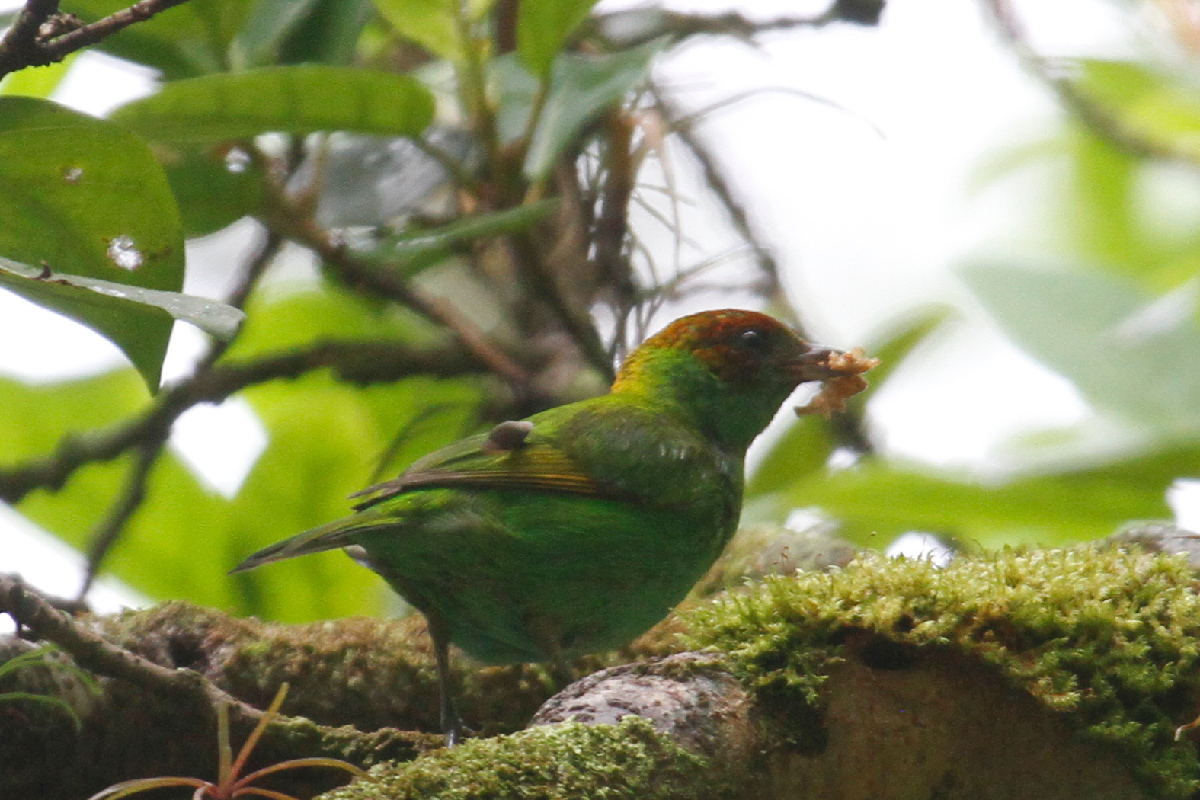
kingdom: Animalia
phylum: Chordata
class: Aves
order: Passeriformes
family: Thraupidae
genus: Tangara
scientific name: Tangara lavinia
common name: Rufous-winged tanager
